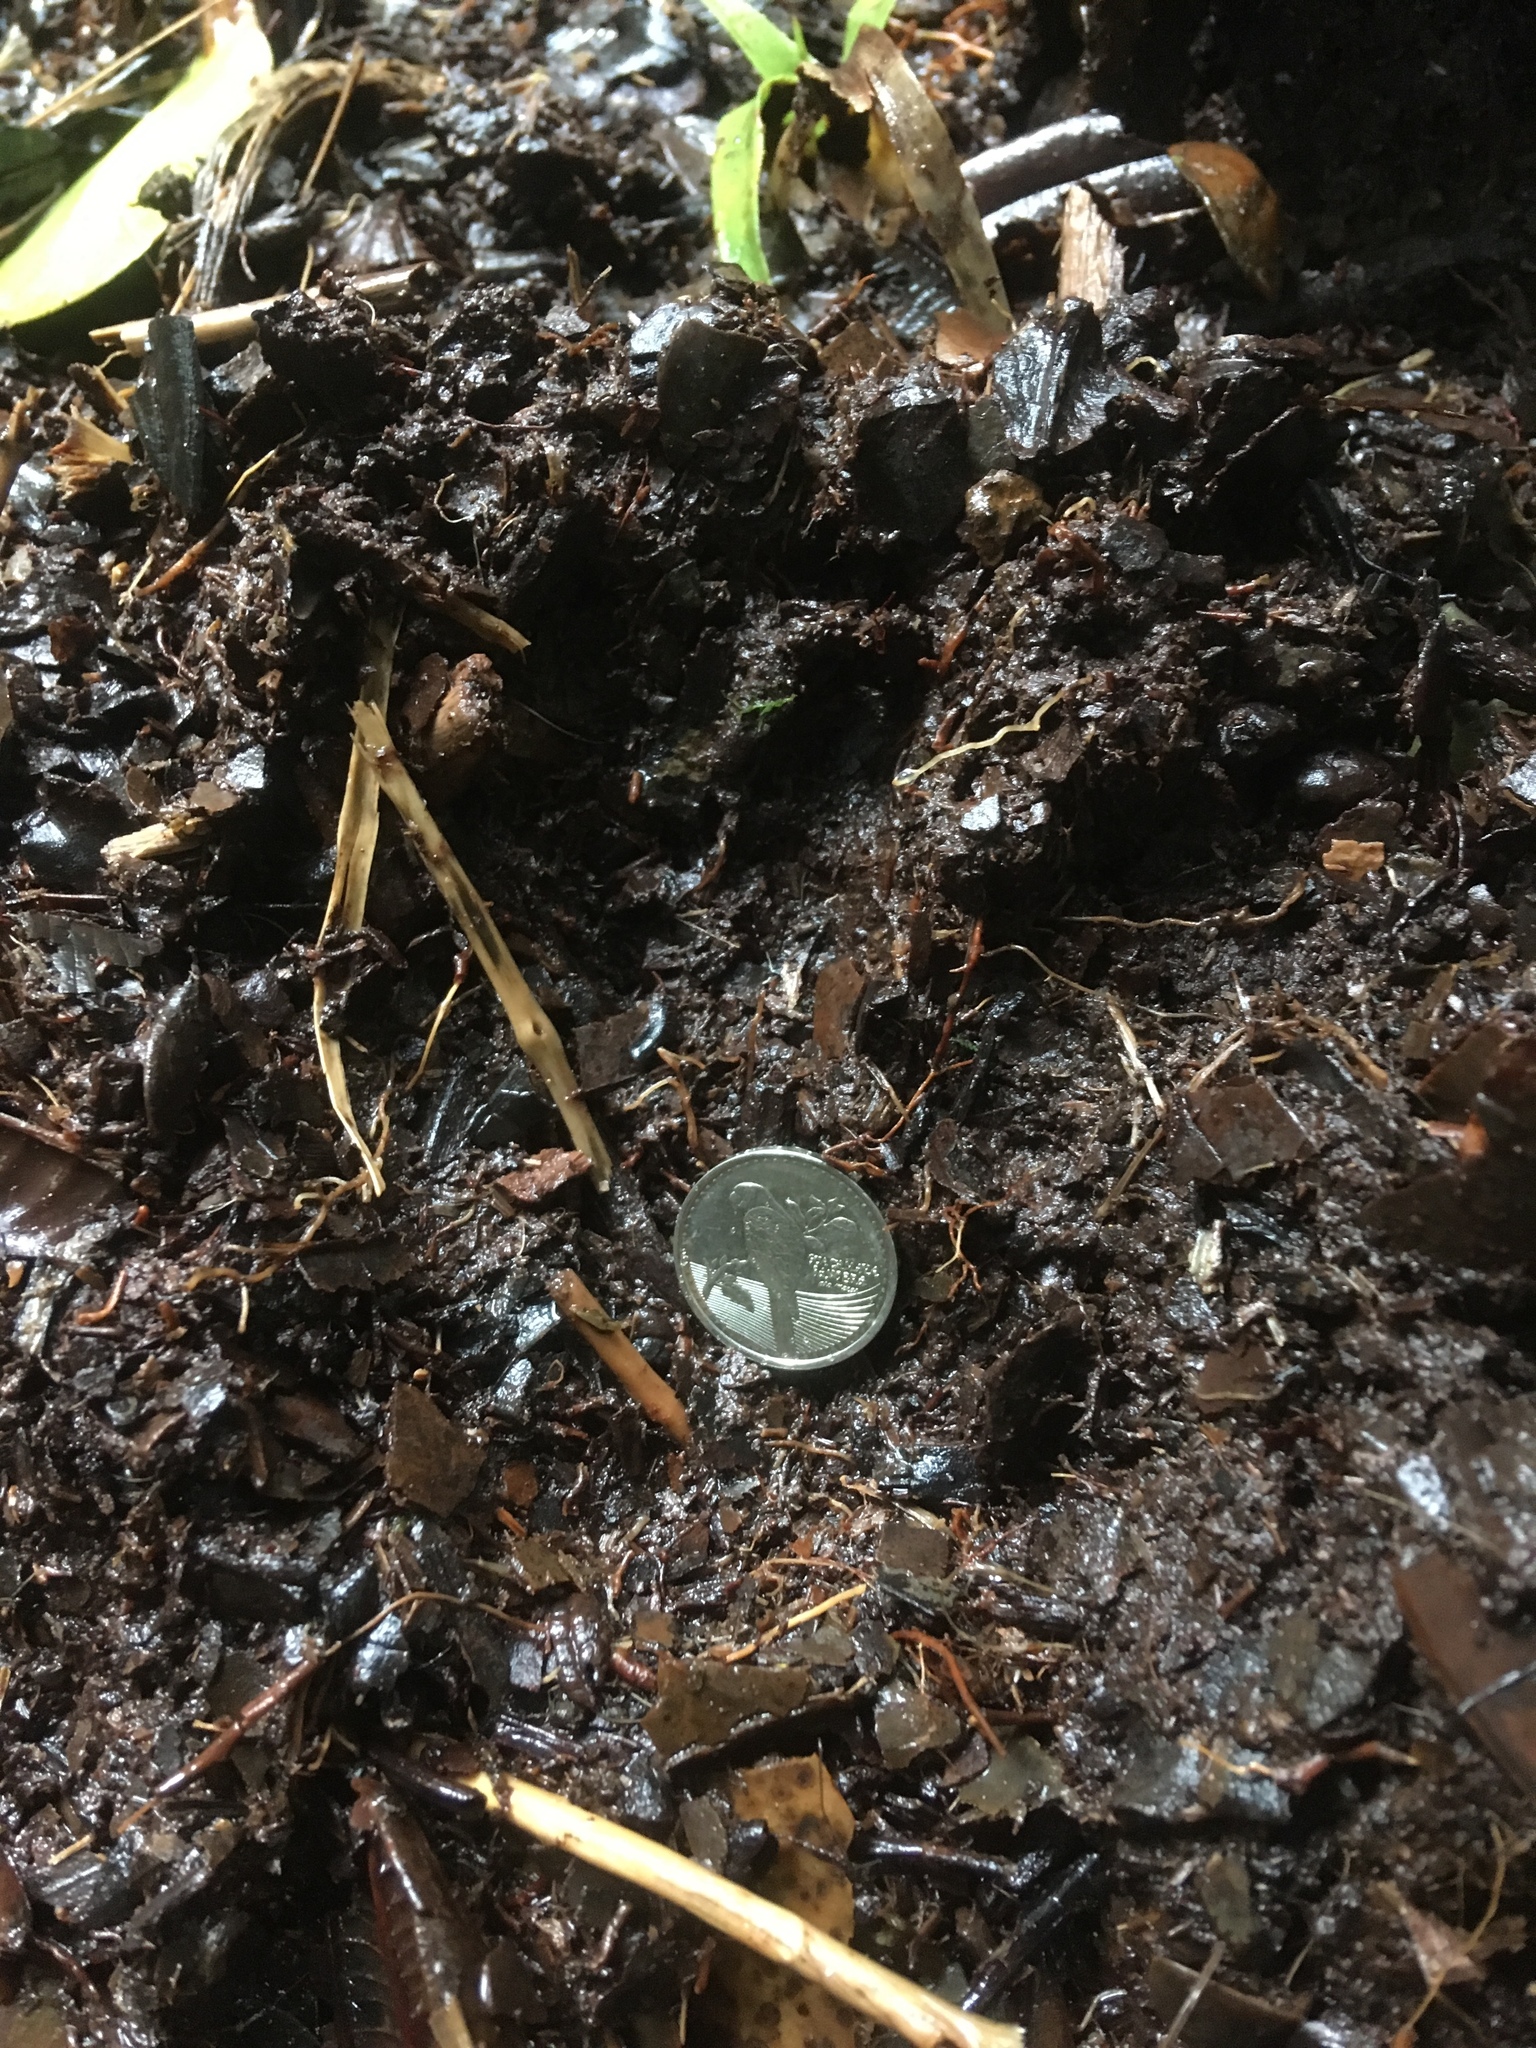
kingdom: Animalia
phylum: Chordata
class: Mammalia
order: Carnivora
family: Ursidae
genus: Tremarctos
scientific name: Tremarctos ornatus
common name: Spectacled bear
